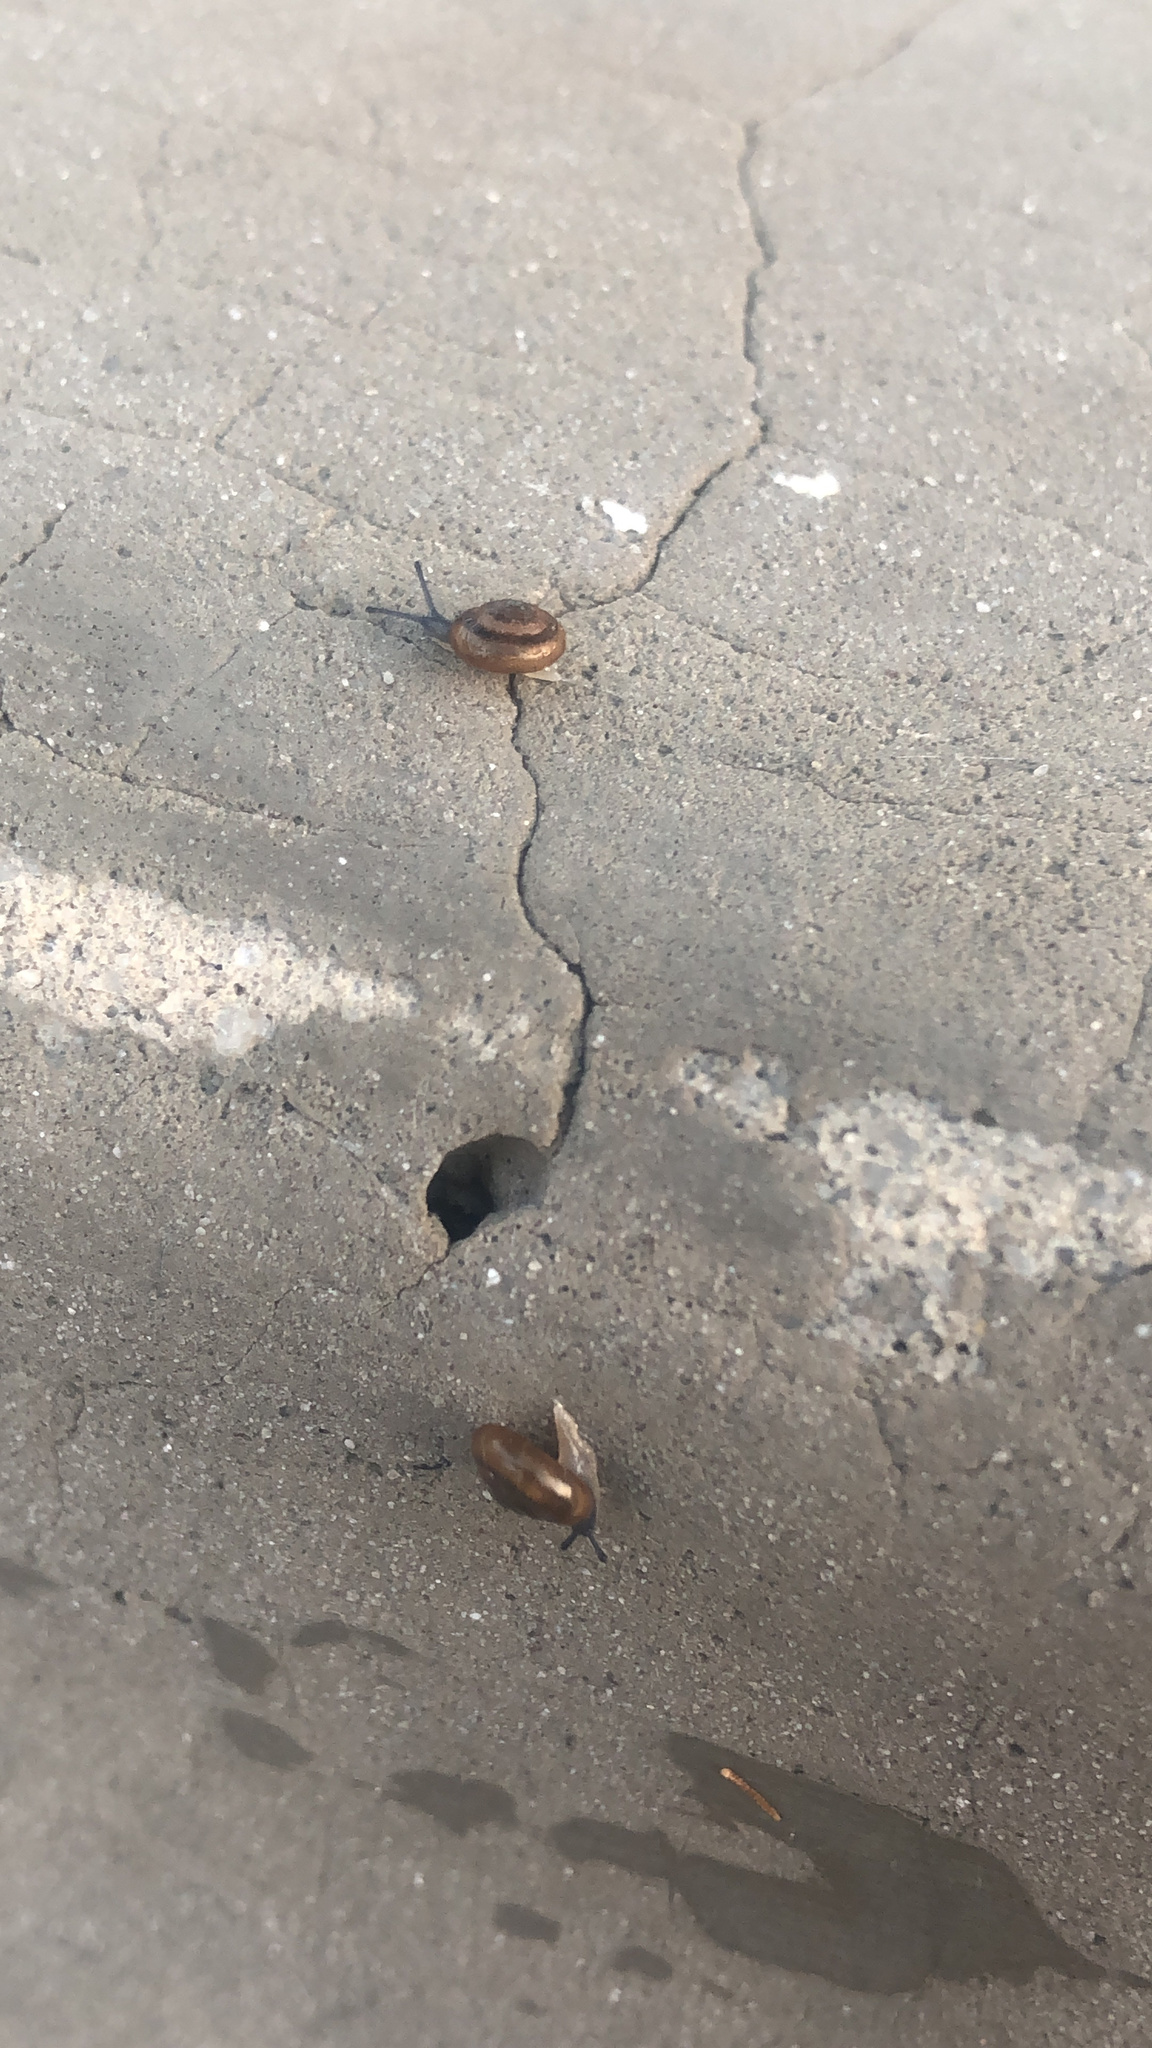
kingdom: Animalia
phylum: Mollusca
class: Gastropoda
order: Stylommatophora
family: Gastrodontidae
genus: Zonitoides
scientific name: Zonitoides arboreus
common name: Quick gloss
